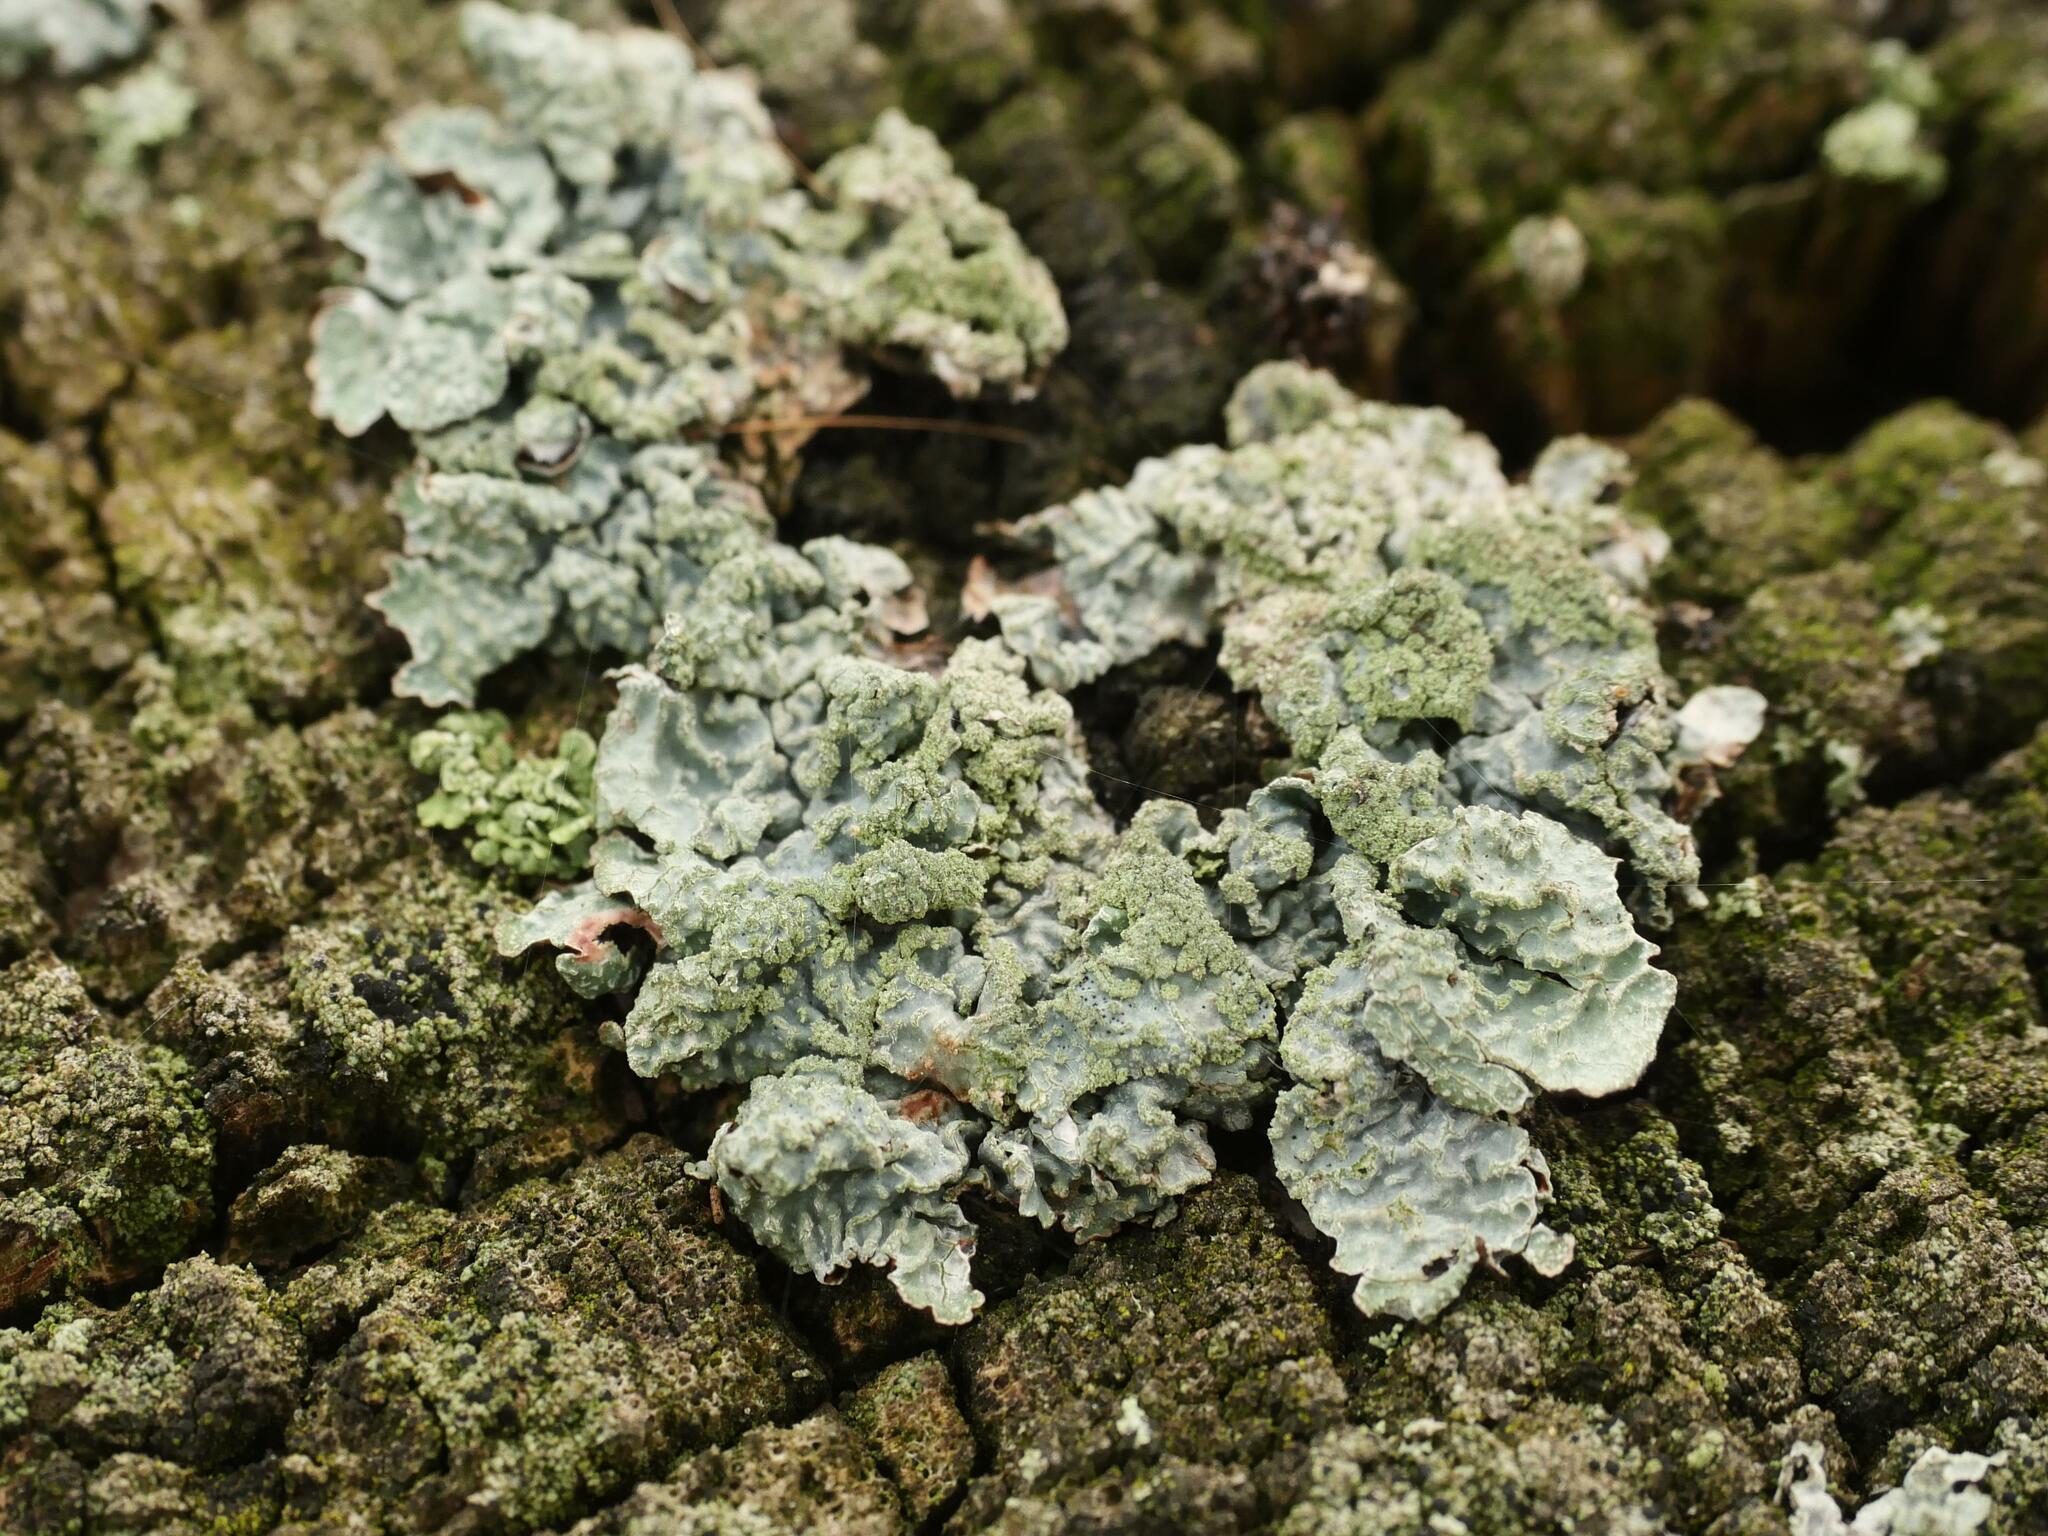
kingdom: Fungi
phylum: Ascomycota
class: Lecanoromycetes
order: Lecanorales
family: Parmeliaceae
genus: Parmelia
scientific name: Parmelia sulcata
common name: Netted shield lichen
